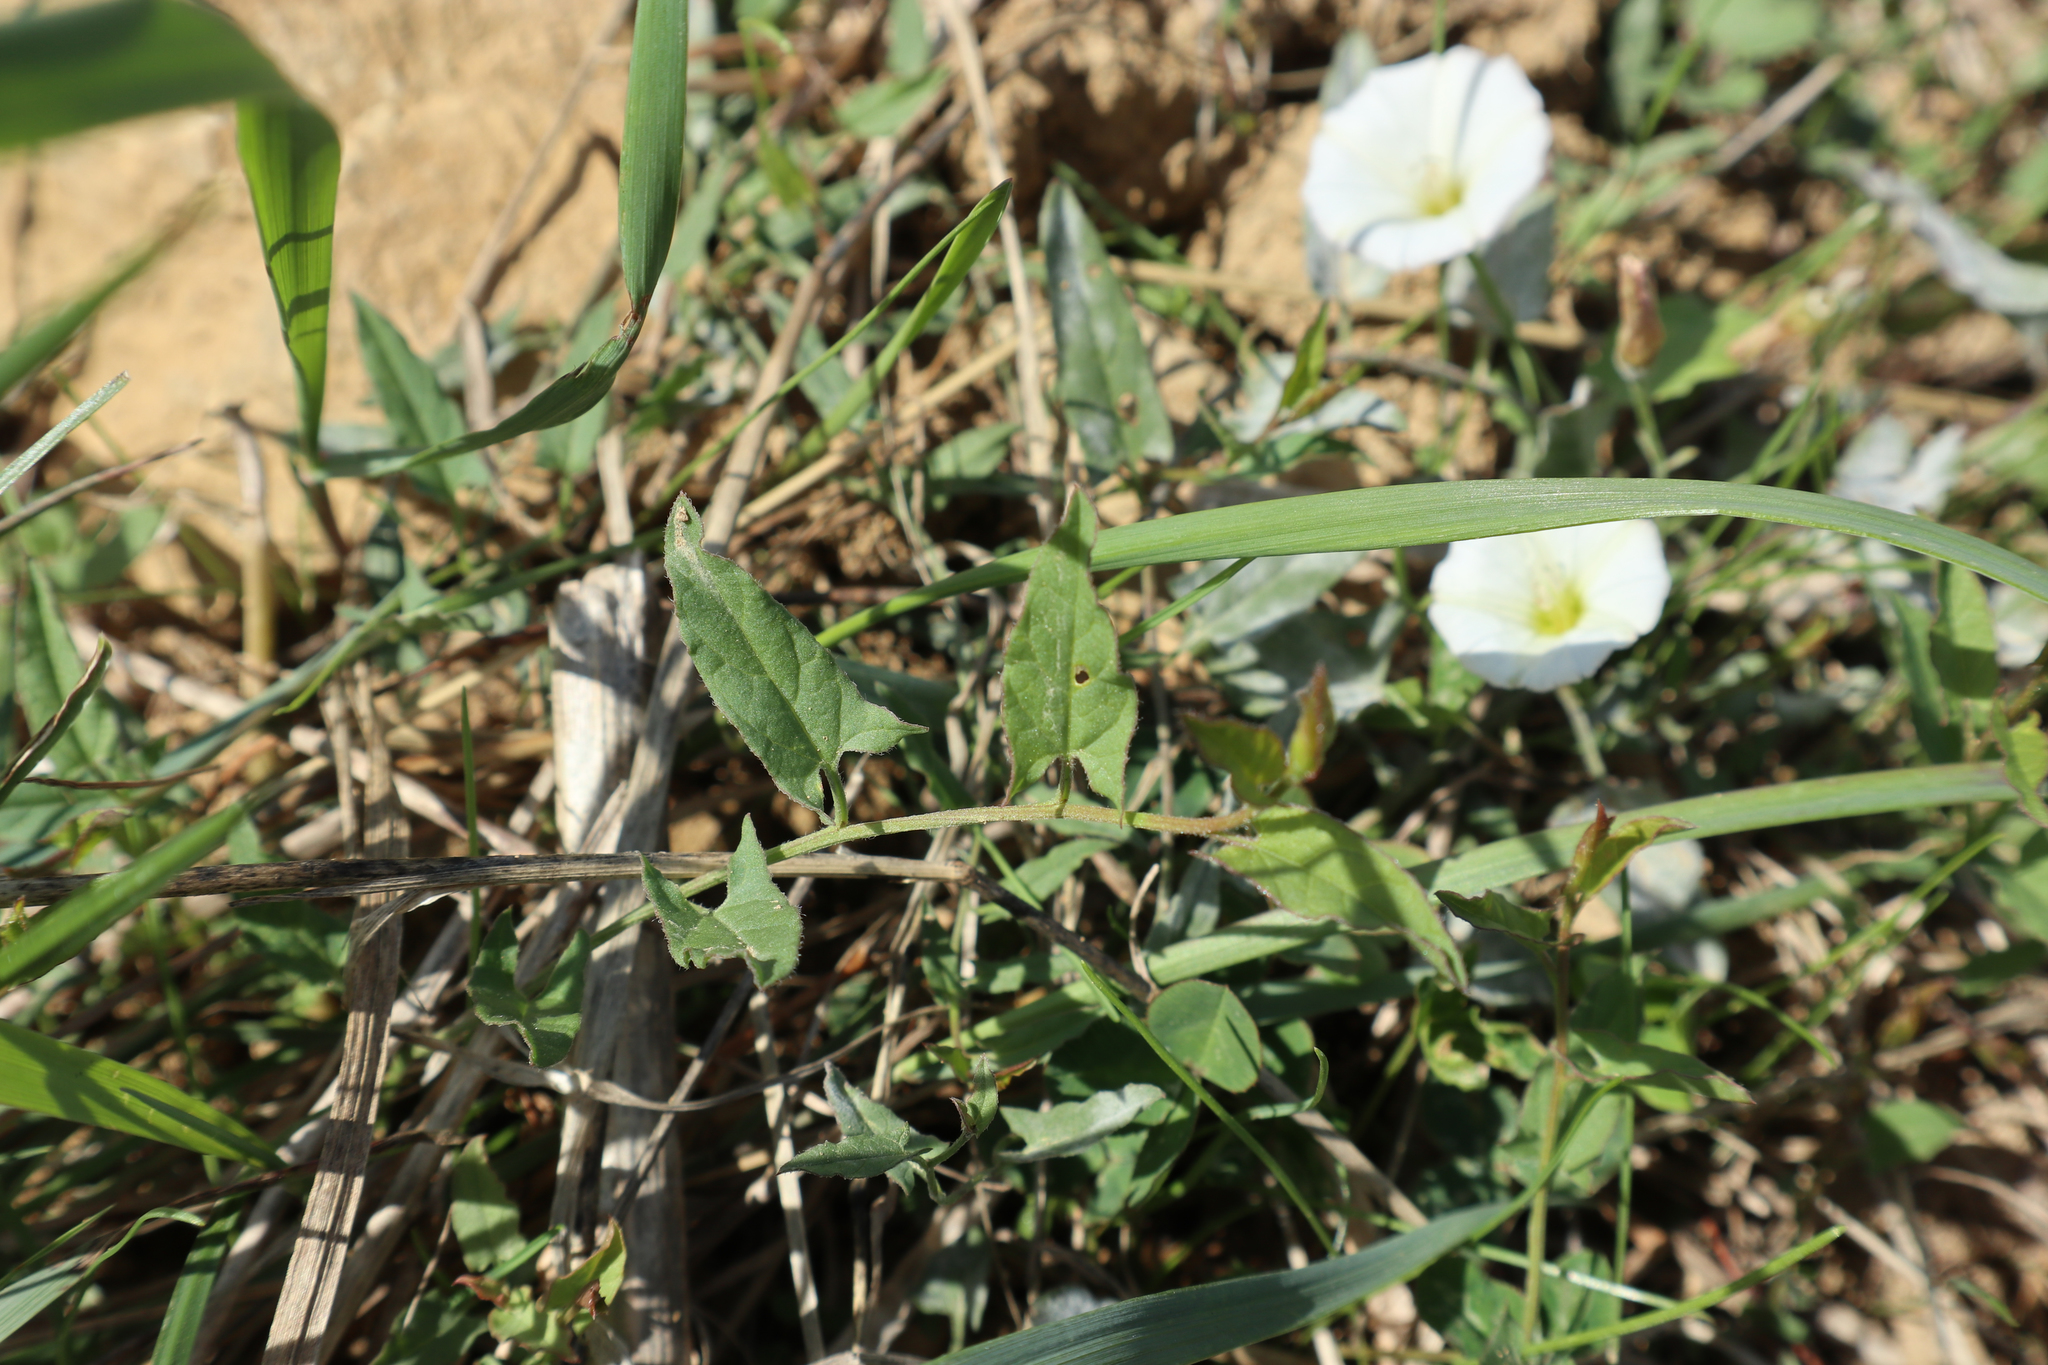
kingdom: Plantae
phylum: Tracheophyta
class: Magnoliopsida
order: Solanales
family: Convolvulaceae
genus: Convolvulus
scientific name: Convolvulus arvensis
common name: Field bindweed
